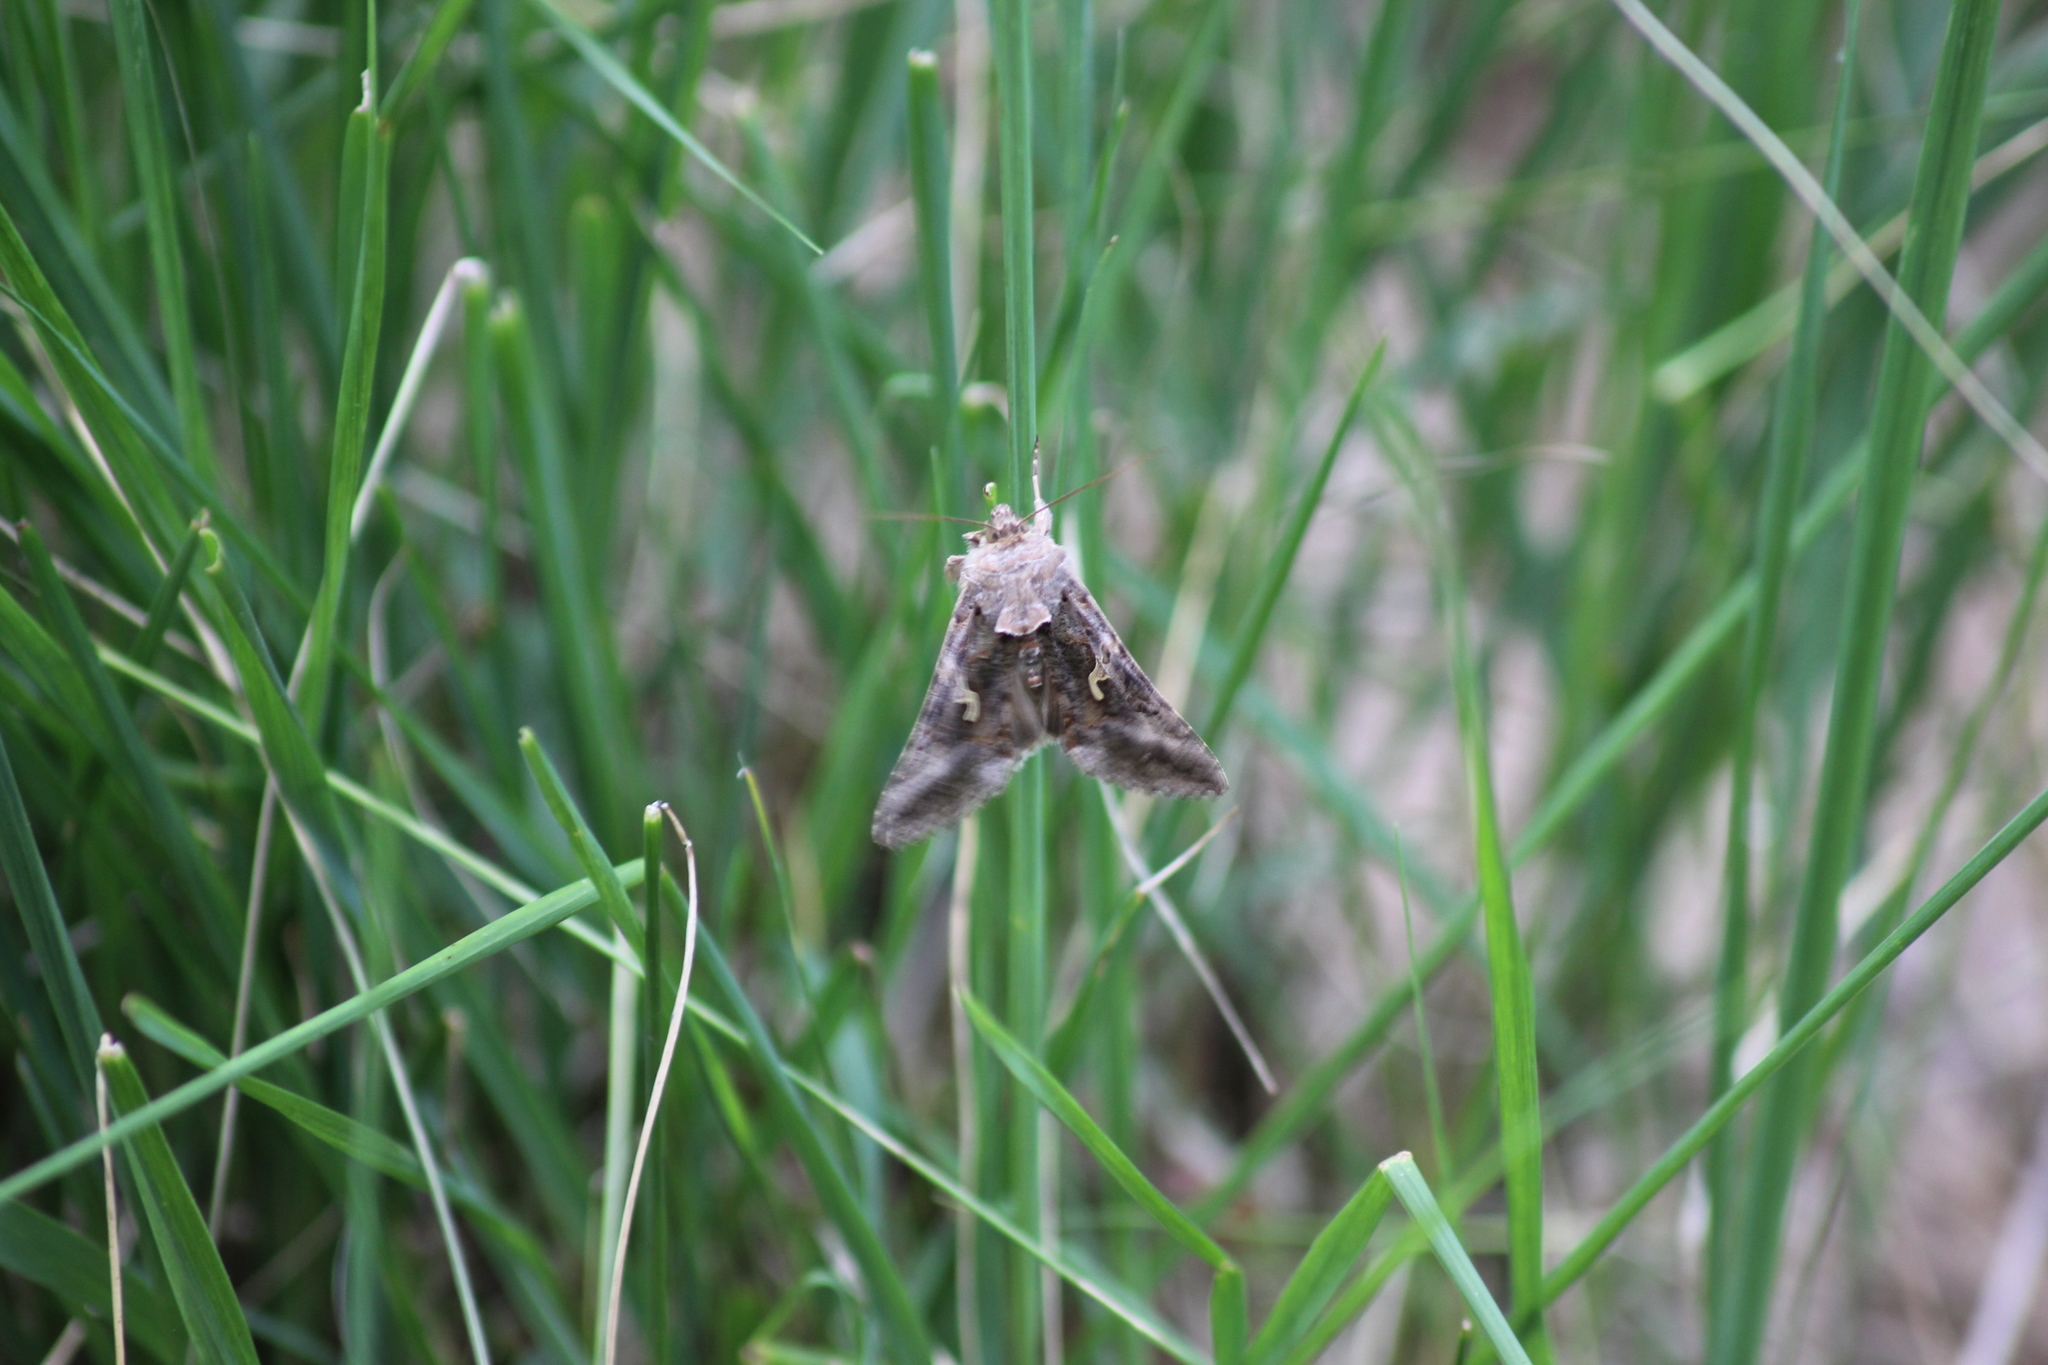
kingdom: Animalia
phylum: Arthropoda
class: Insecta
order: Lepidoptera
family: Noctuidae
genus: Autographa
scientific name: Autographa gamma
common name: Silver y
